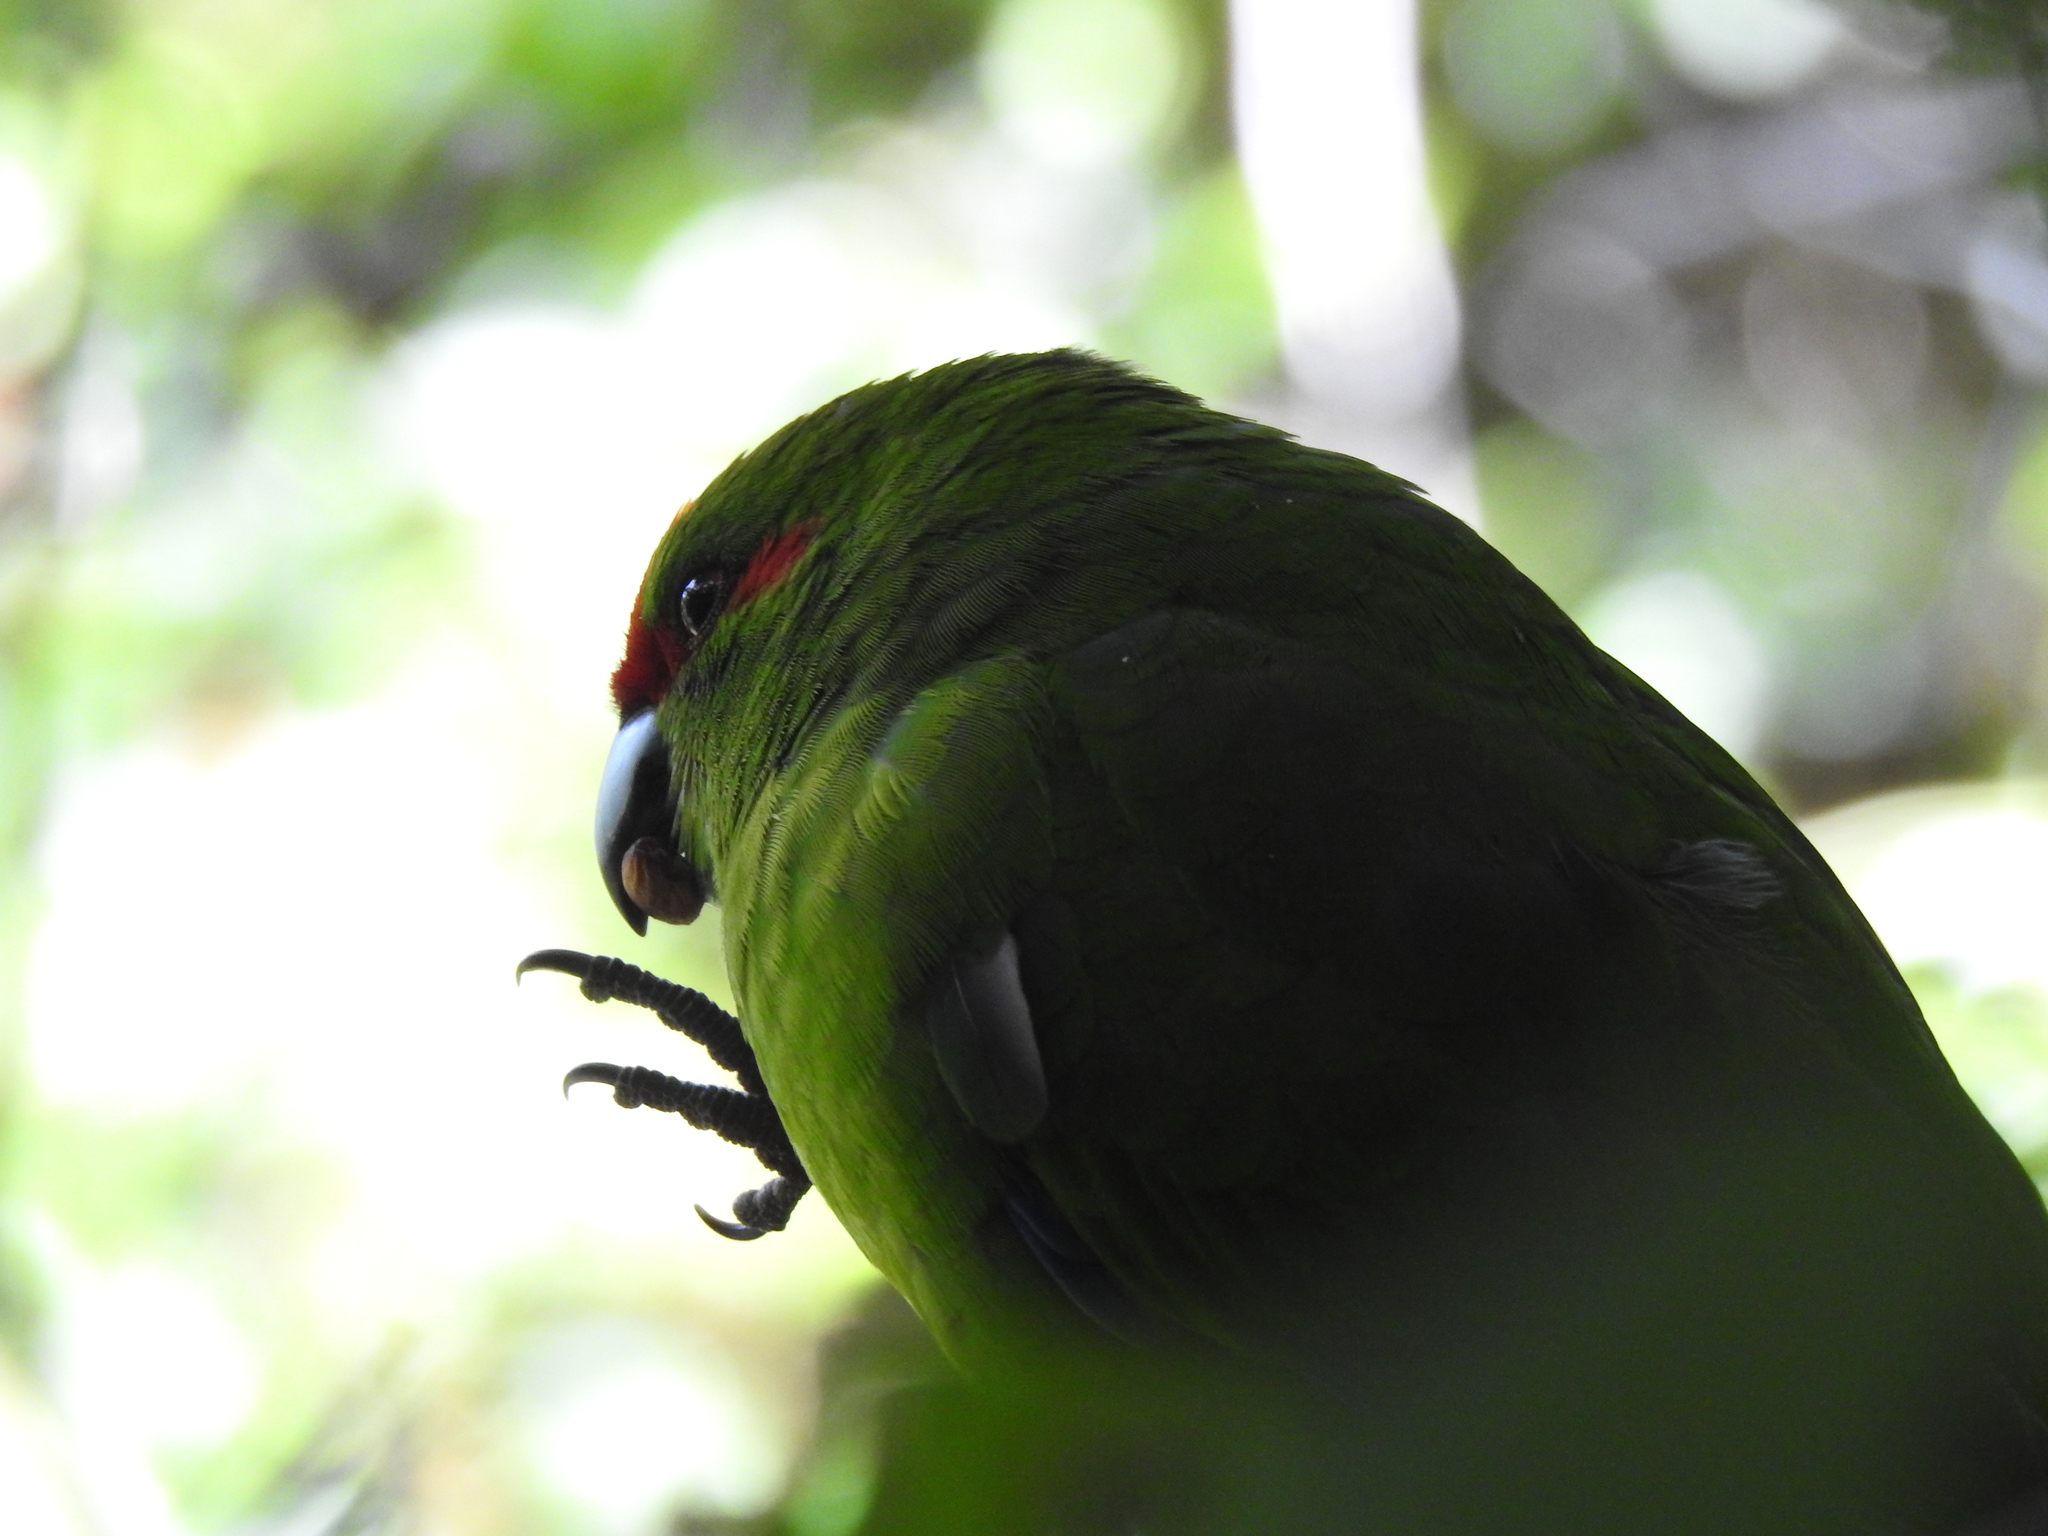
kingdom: Animalia
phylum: Chordata
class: Aves
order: Psittaciformes
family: Psittacidae
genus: Cyanoramphus
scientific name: Cyanoramphus novaezelandiae
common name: Red-fronted parakeet
